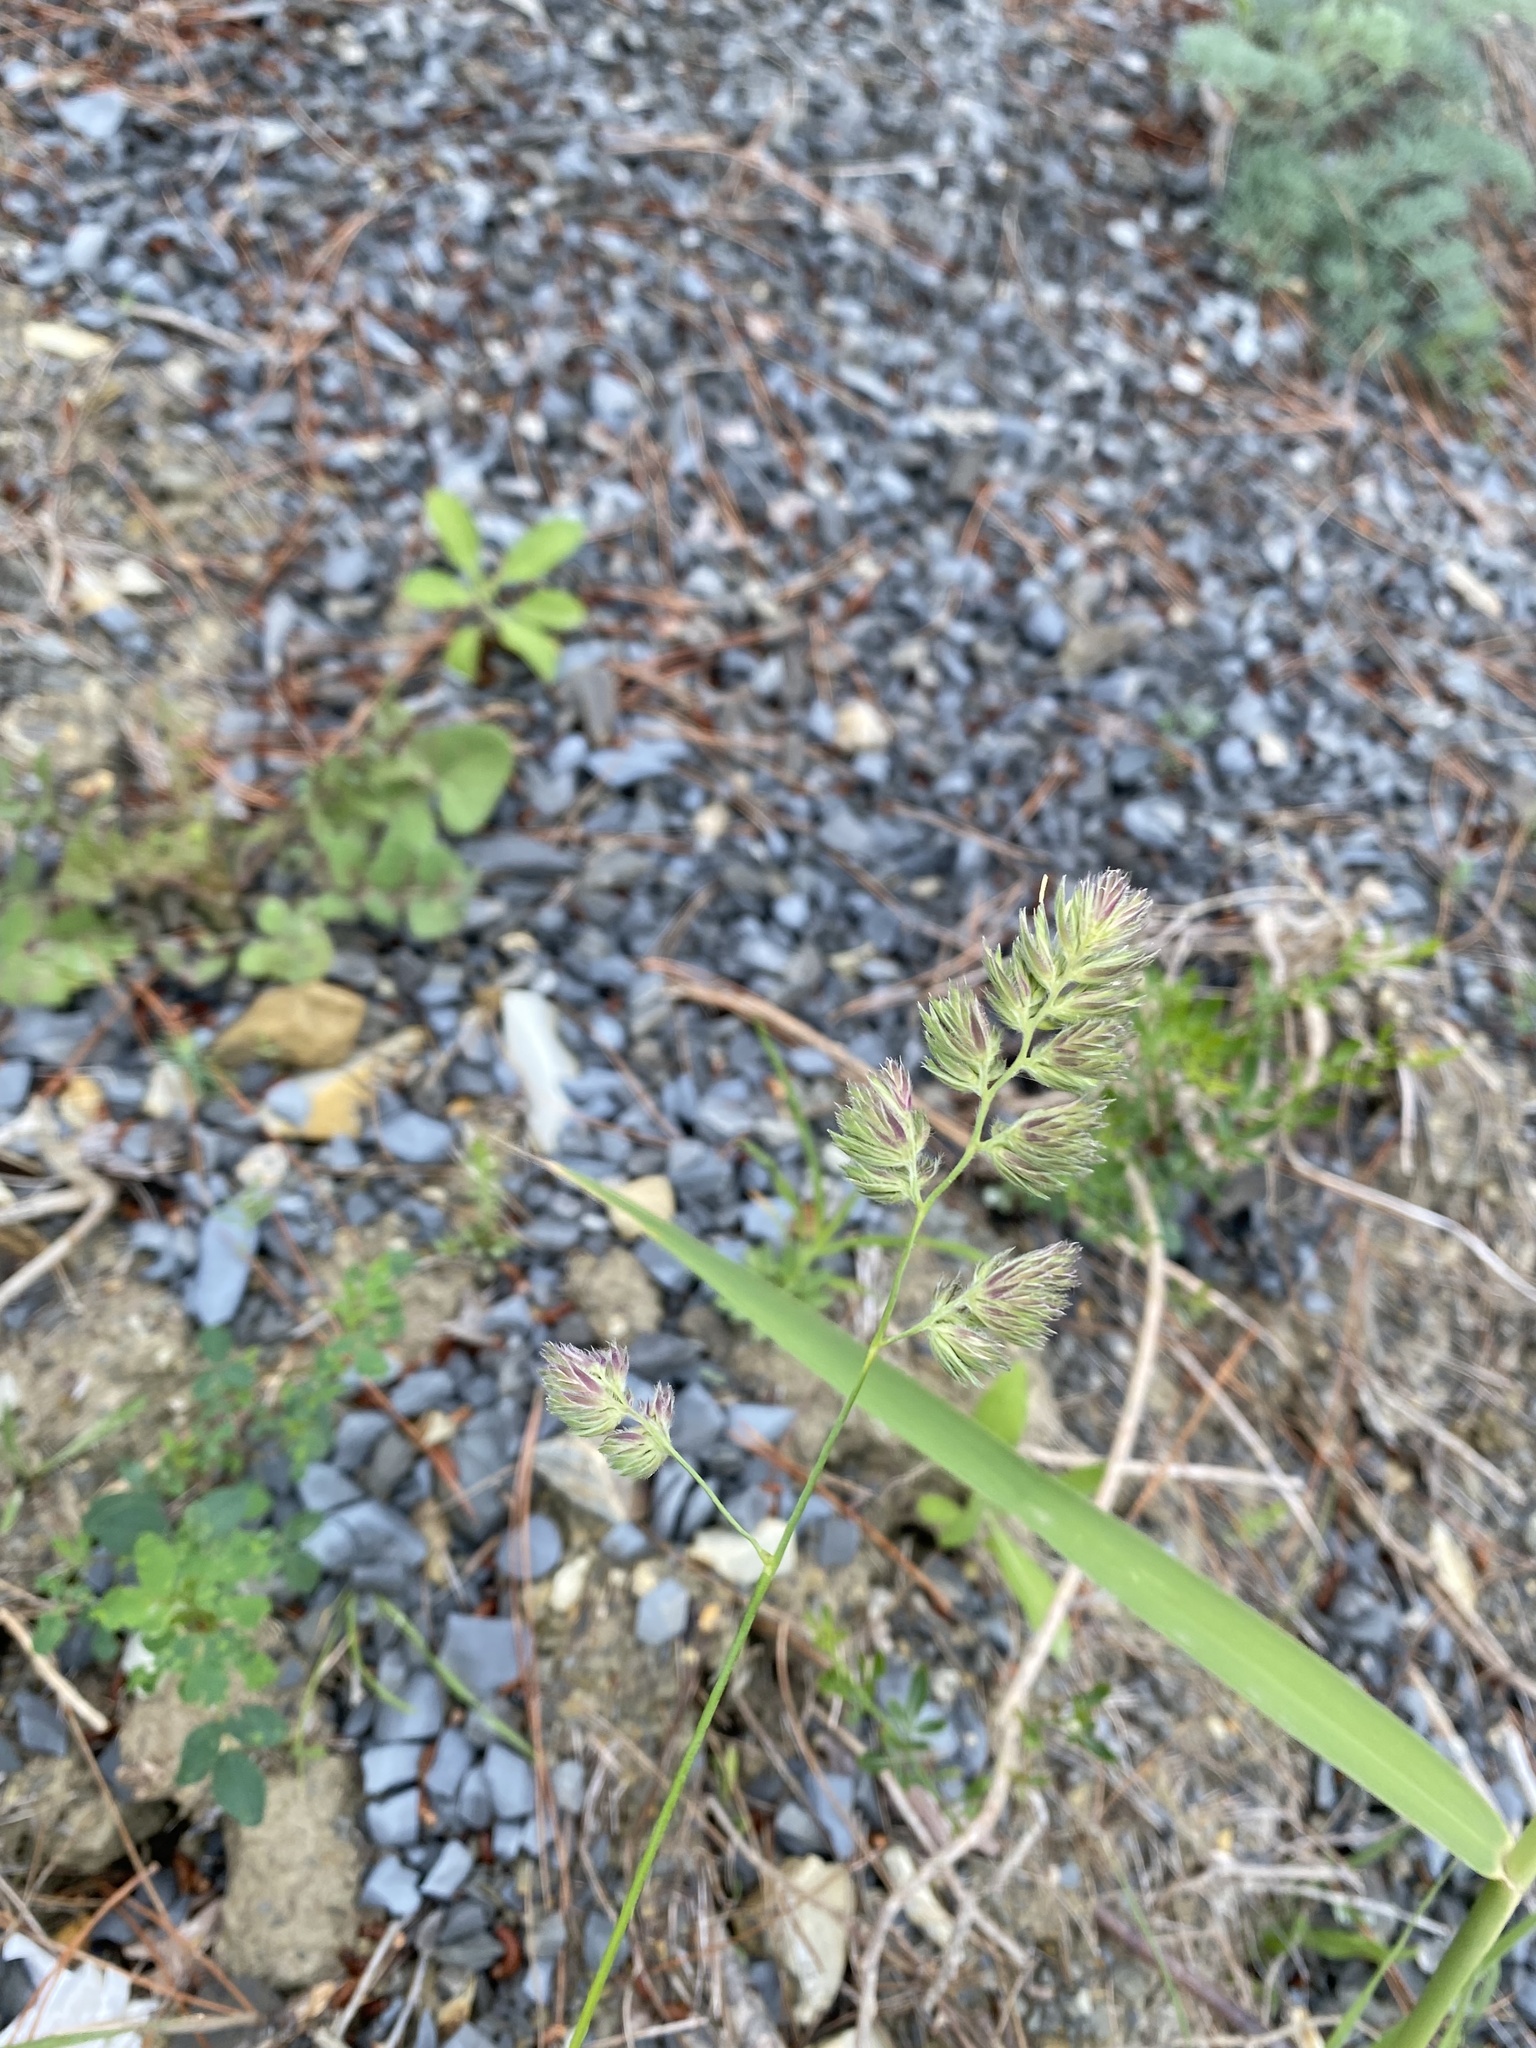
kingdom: Plantae
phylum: Tracheophyta
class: Liliopsida
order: Poales
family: Poaceae
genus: Dactylis
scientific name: Dactylis glomerata
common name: Orchardgrass
